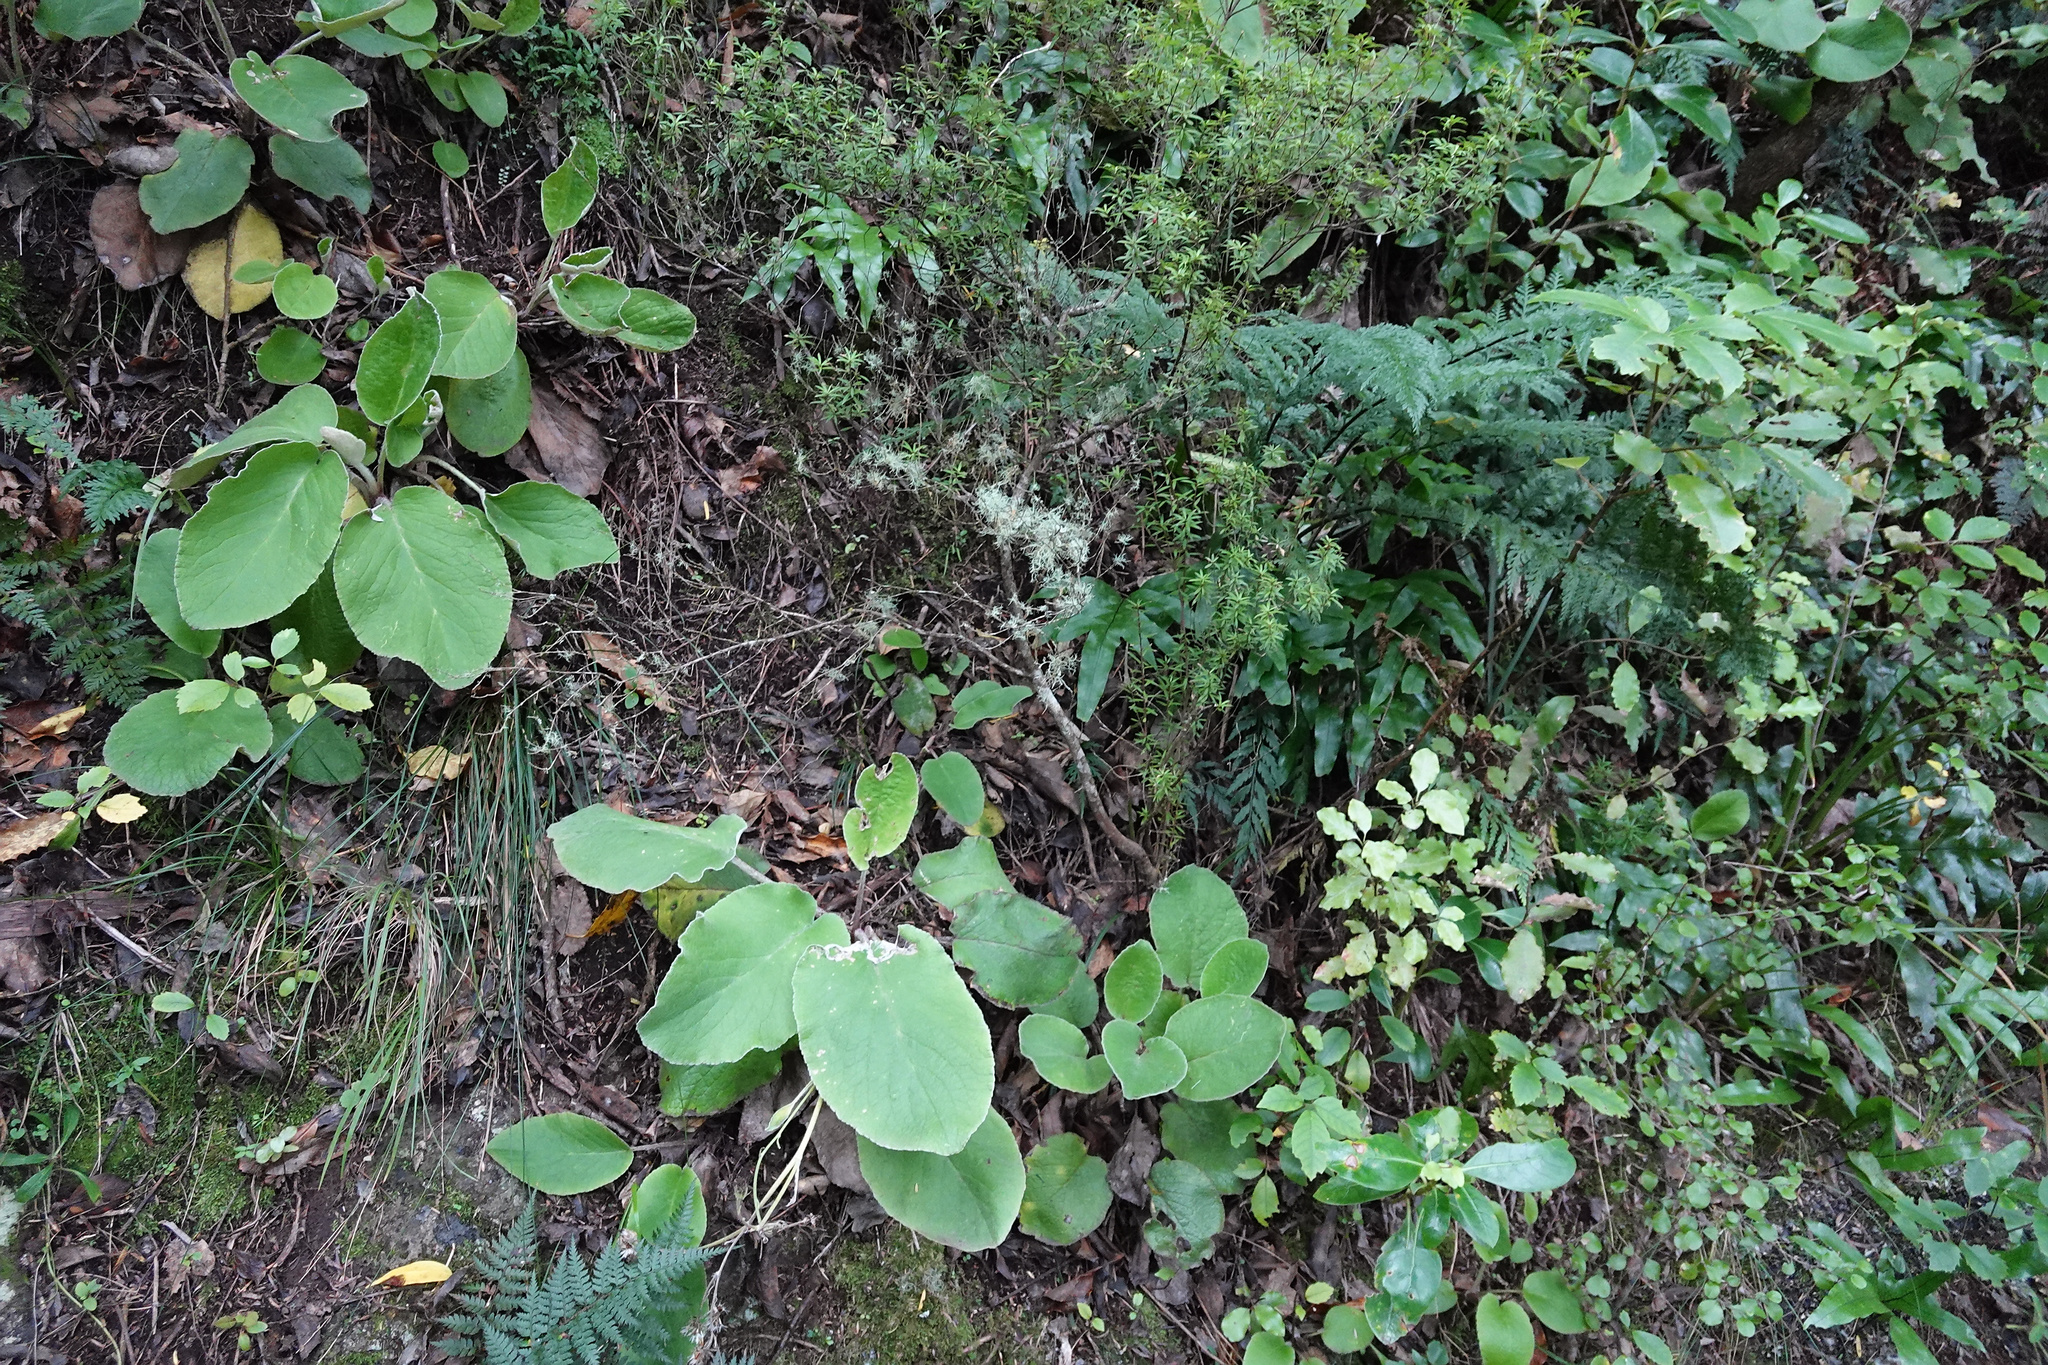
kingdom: Plantae
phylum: Tracheophyta
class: Magnoliopsida
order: Asterales
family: Asteraceae
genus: Brachyglottis
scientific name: Brachyglottis lagopus
